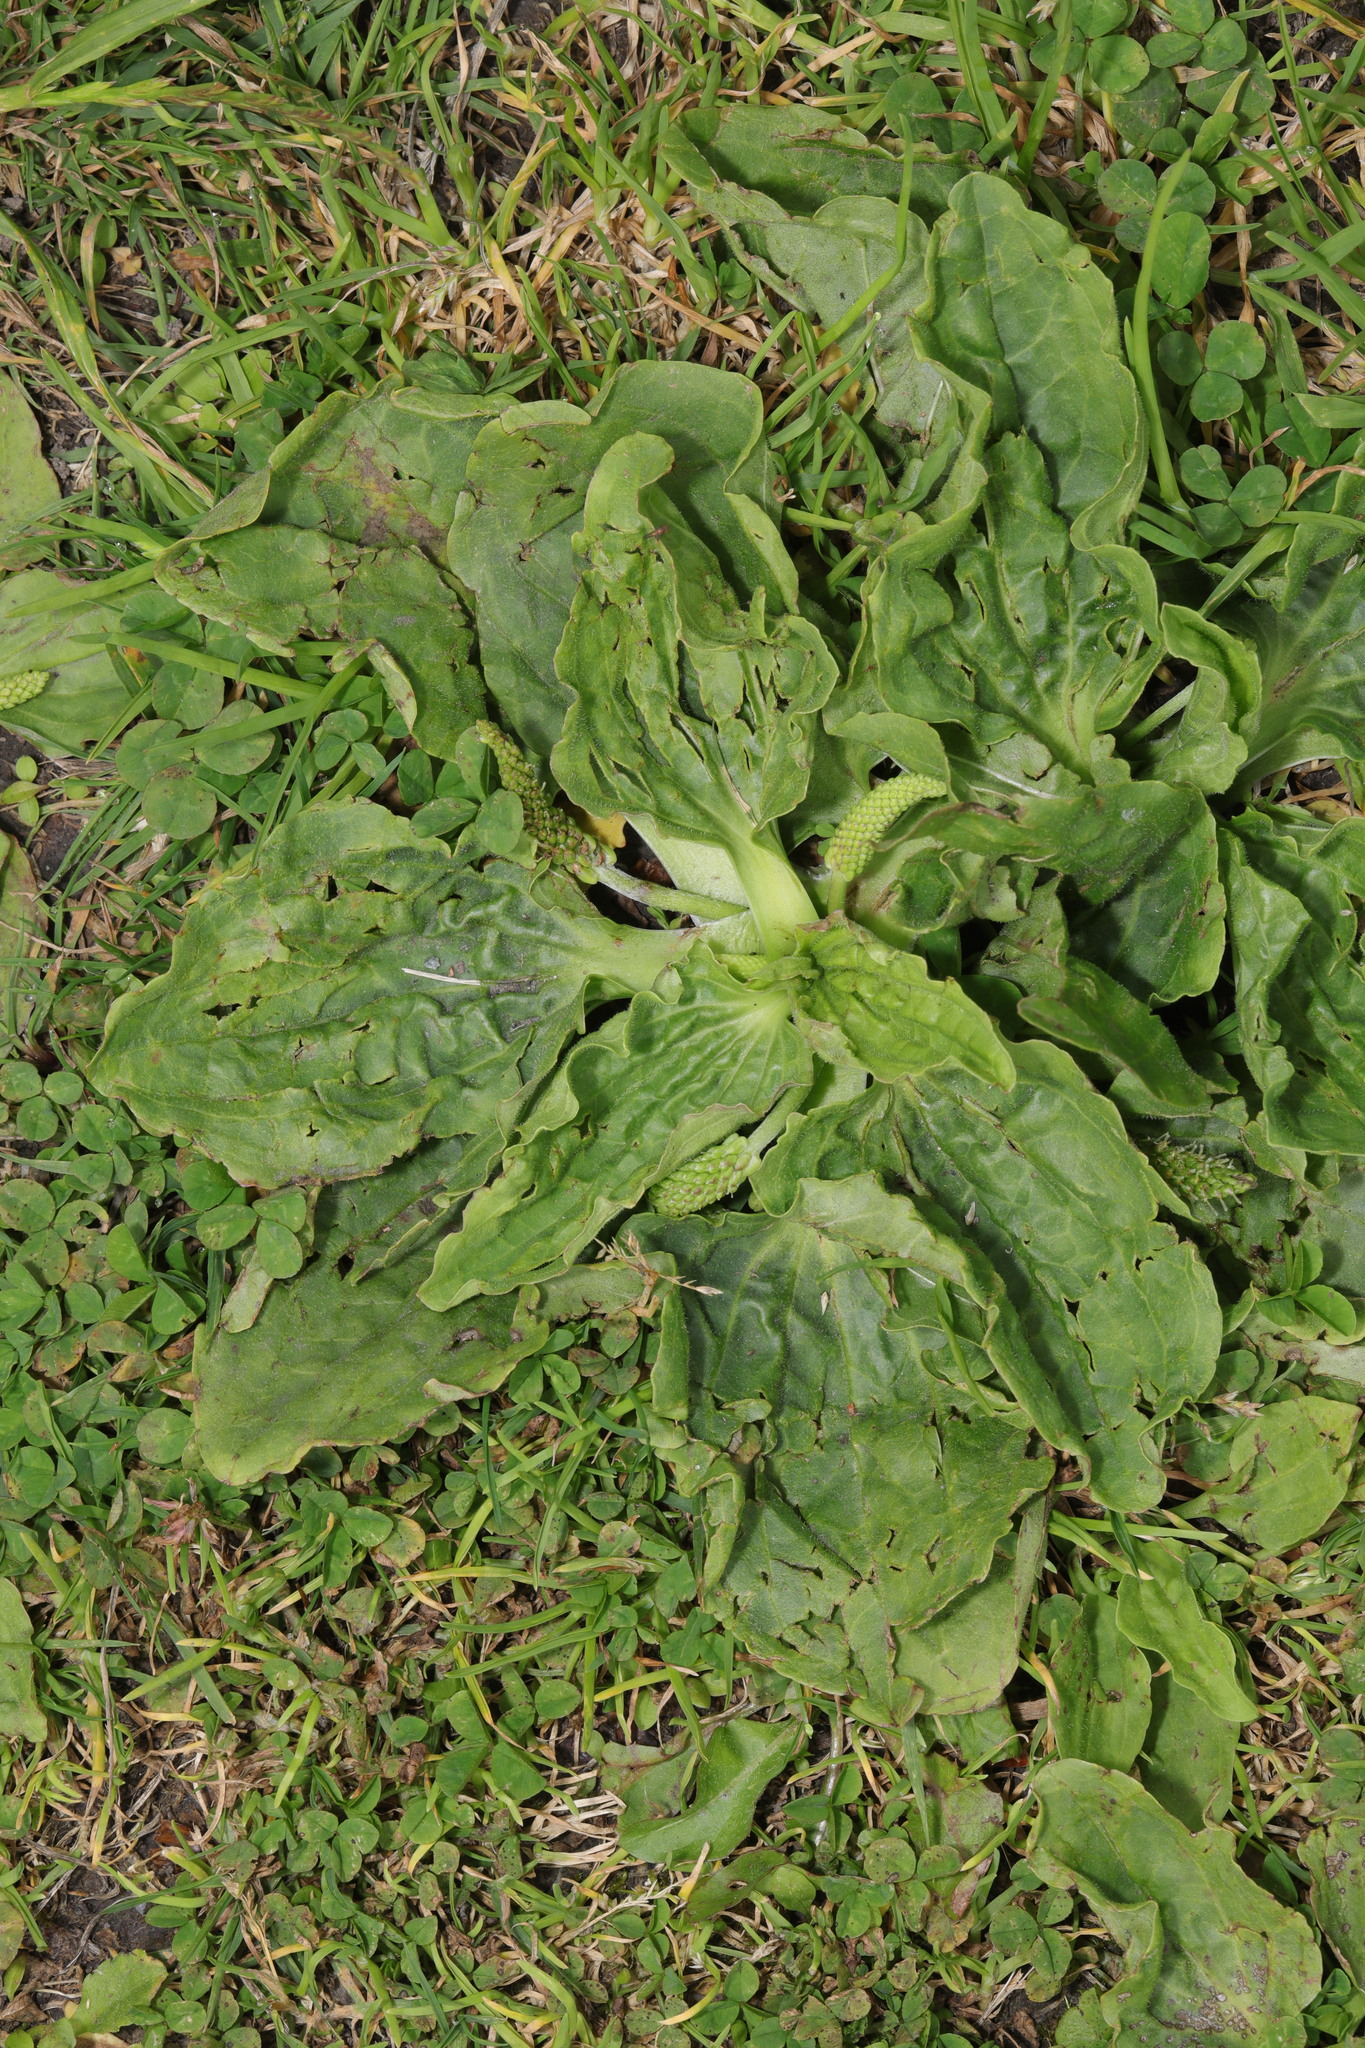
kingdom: Plantae
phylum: Tracheophyta
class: Magnoliopsida
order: Lamiales
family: Plantaginaceae
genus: Plantago
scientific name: Plantago major
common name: Common plantain
